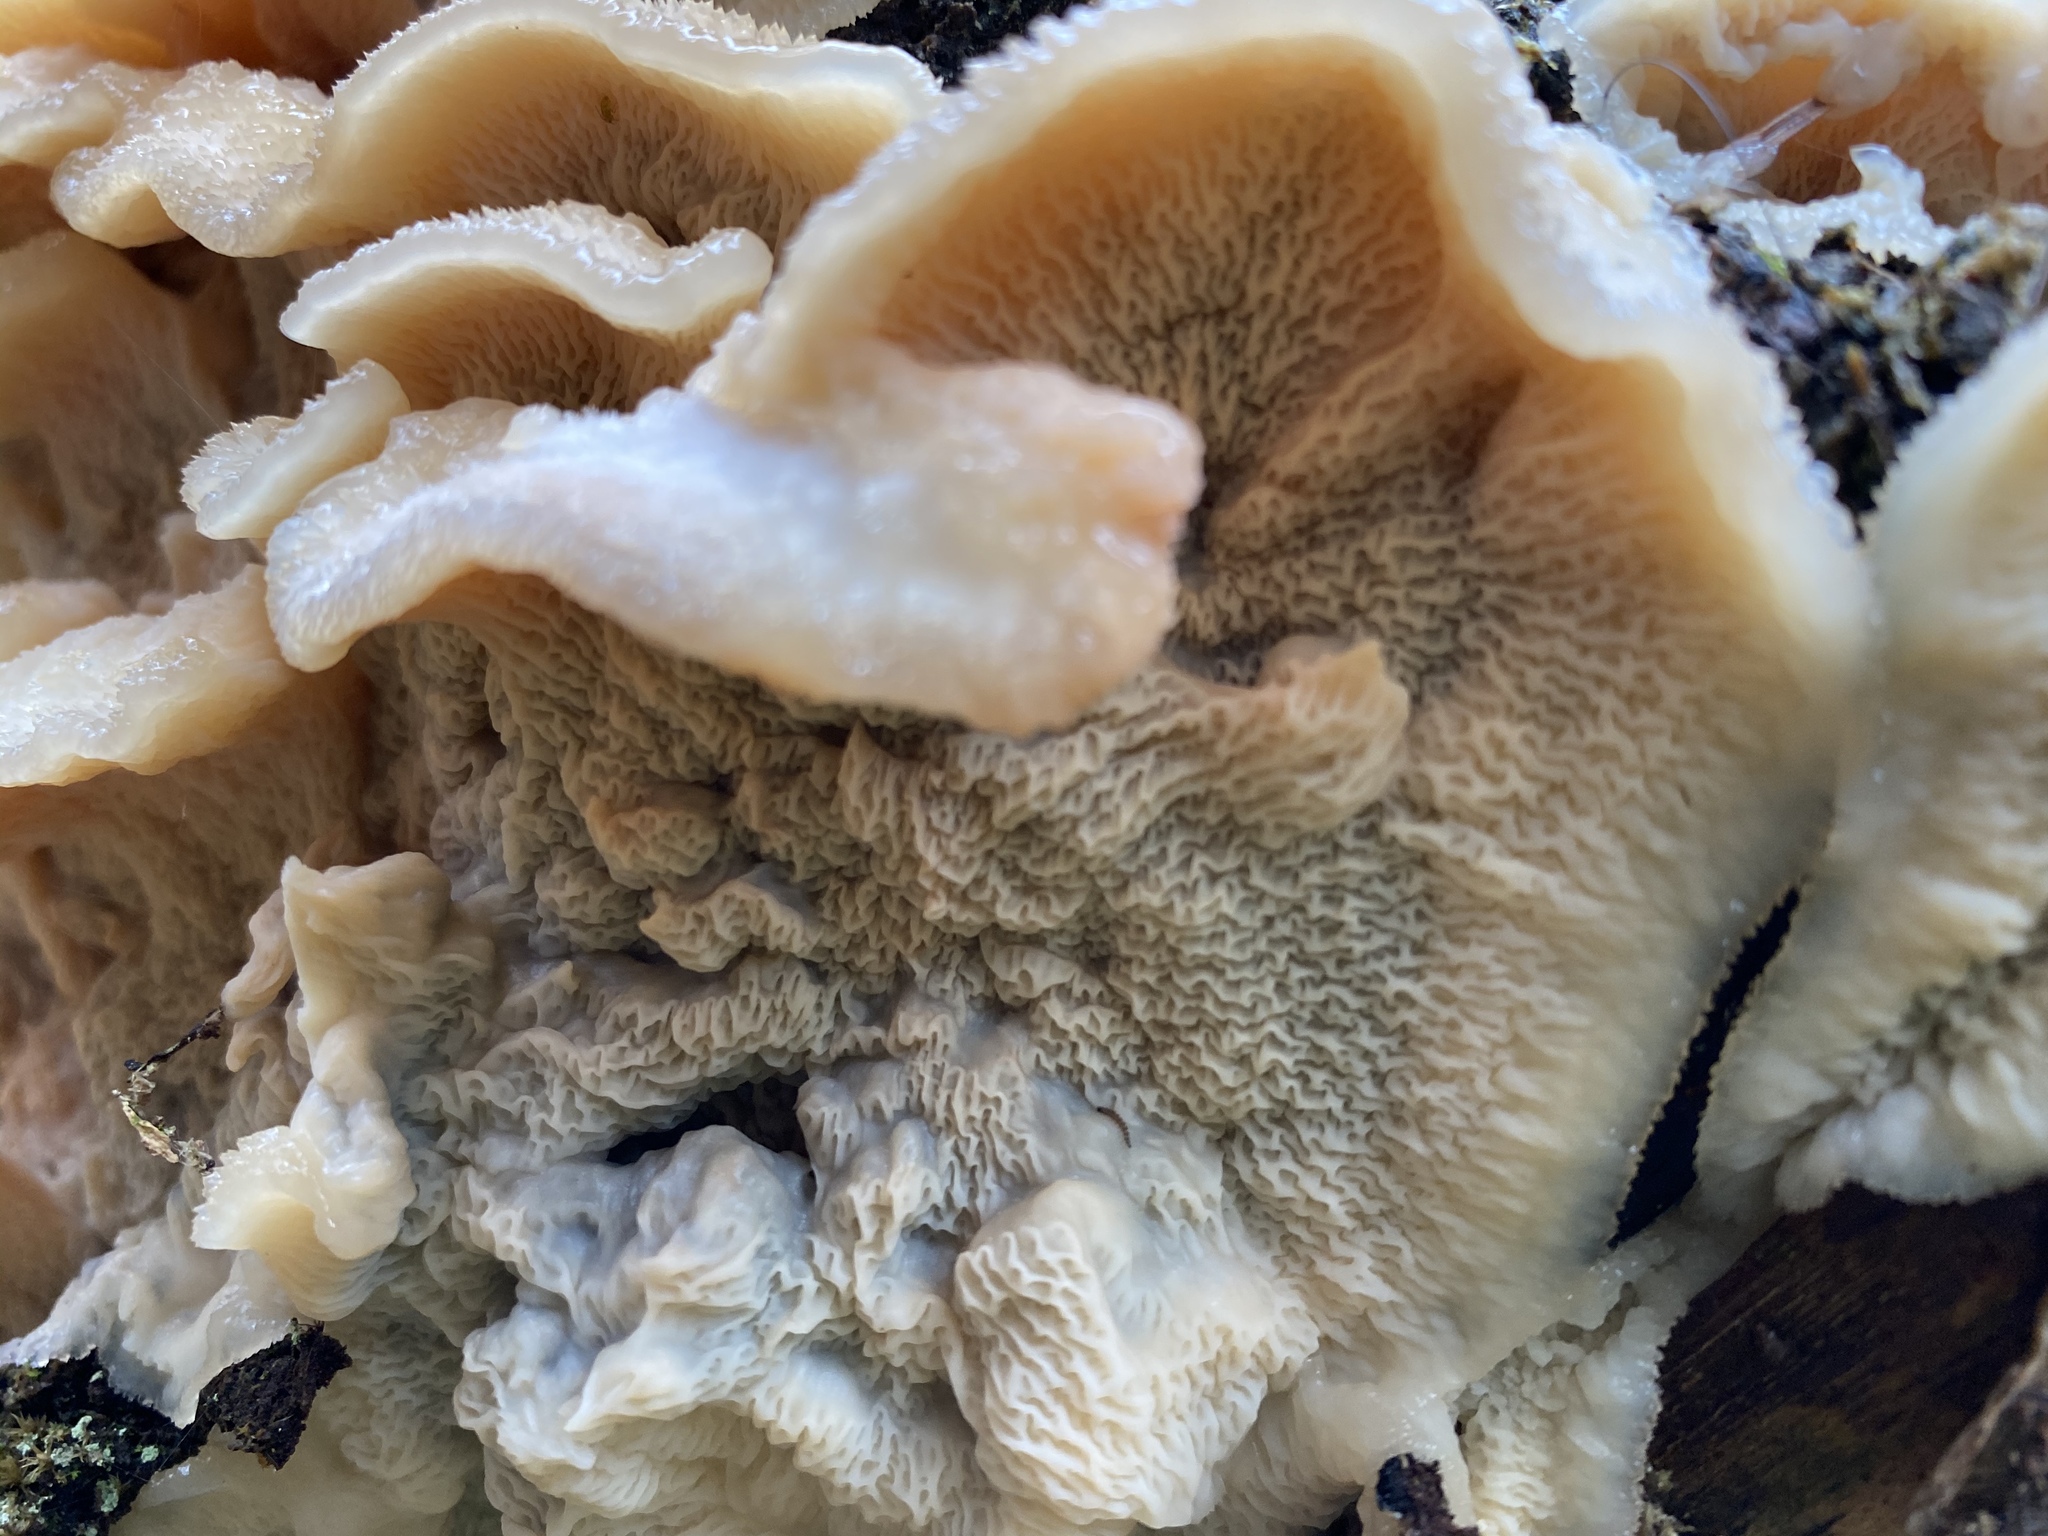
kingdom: Fungi
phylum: Basidiomycota
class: Agaricomycetes
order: Polyporales
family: Meruliaceae
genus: Phlebia
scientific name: Phlebia tremellosa
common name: Jelly rot
